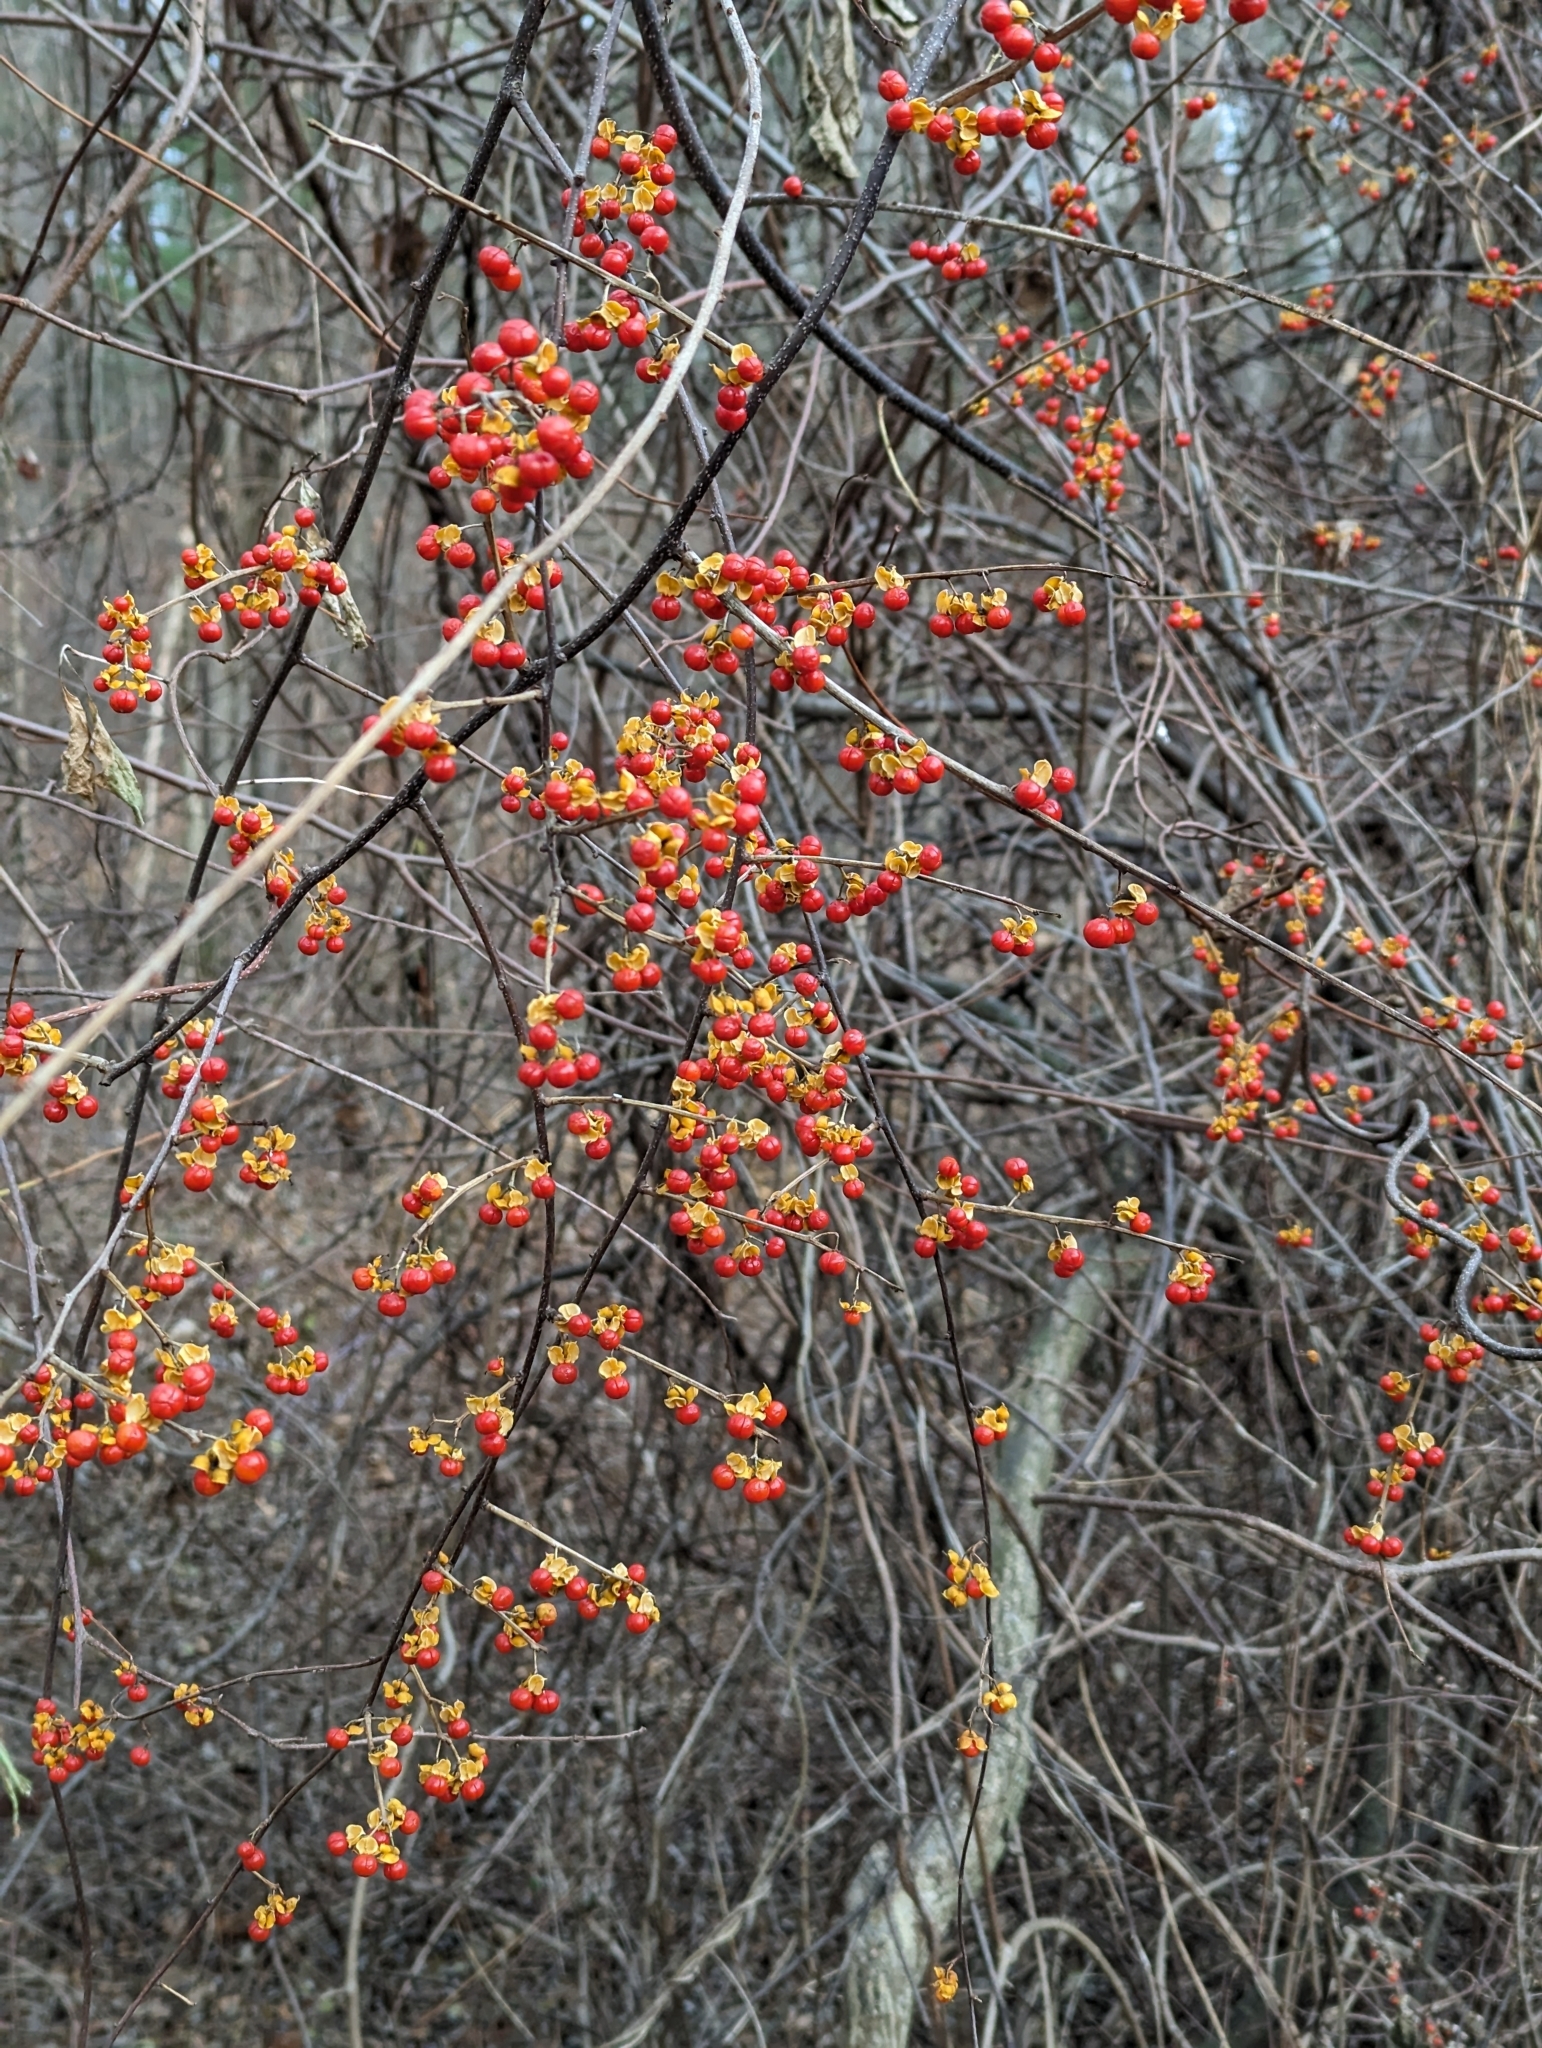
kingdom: Plantae
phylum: Tracheophyta
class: Magnoliopsida
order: Celastrales
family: Celastraceae
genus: Celastrus
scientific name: Celastrus orbiculatus
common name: Oriental bittersweet
